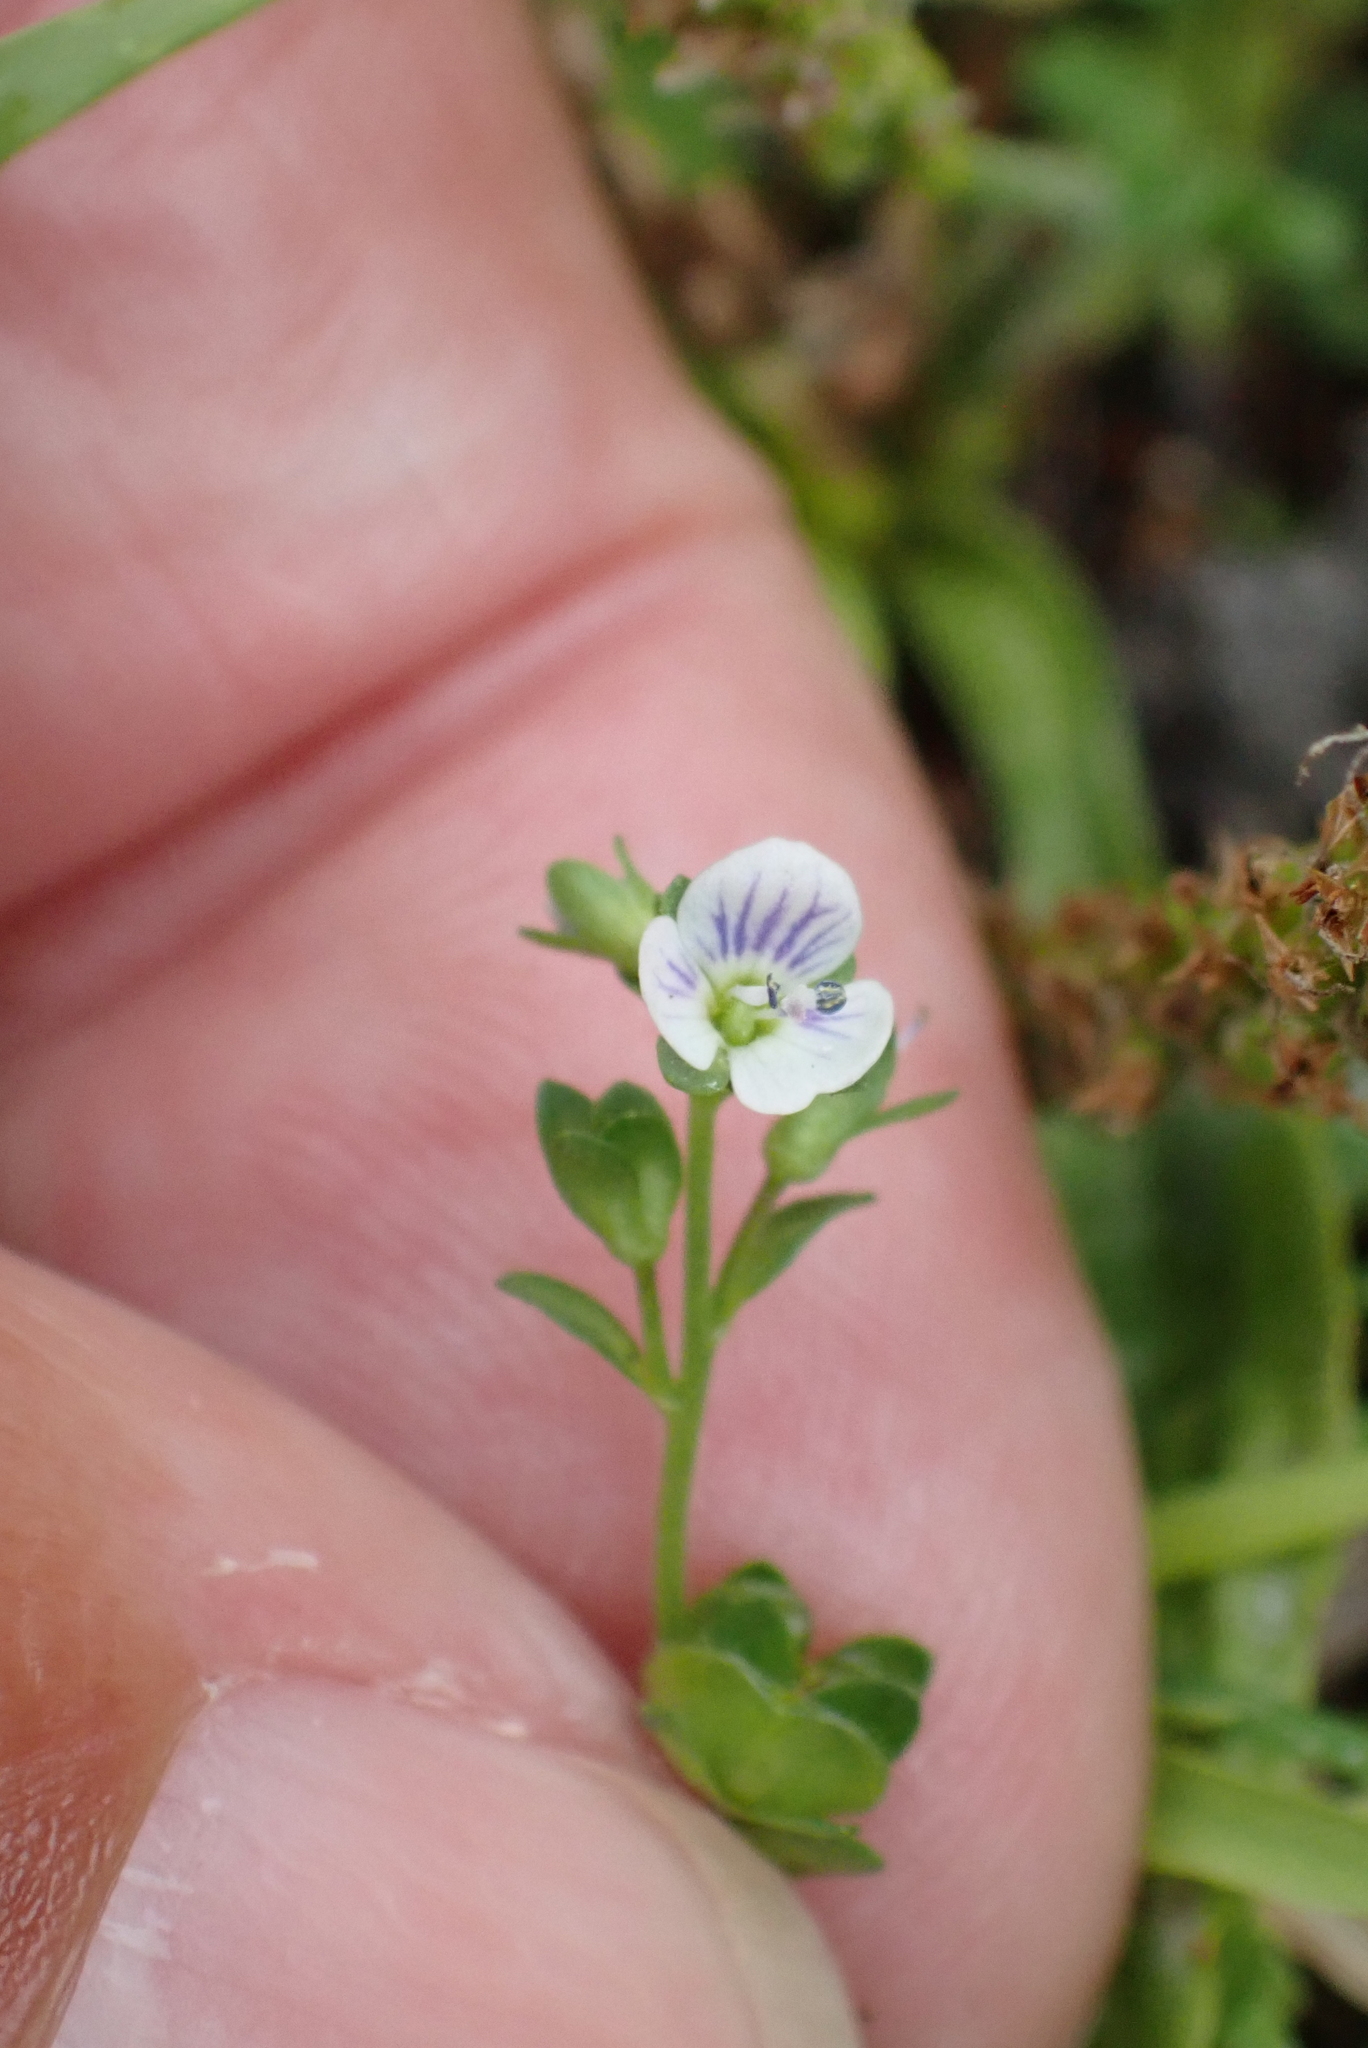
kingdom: Plantae
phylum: Tracheophyta
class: Magnoliopsida
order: Lamiales
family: Plantaginaceae
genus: Veronica
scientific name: Veronica serpyllifolia
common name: Thyme-leaved speedwell
